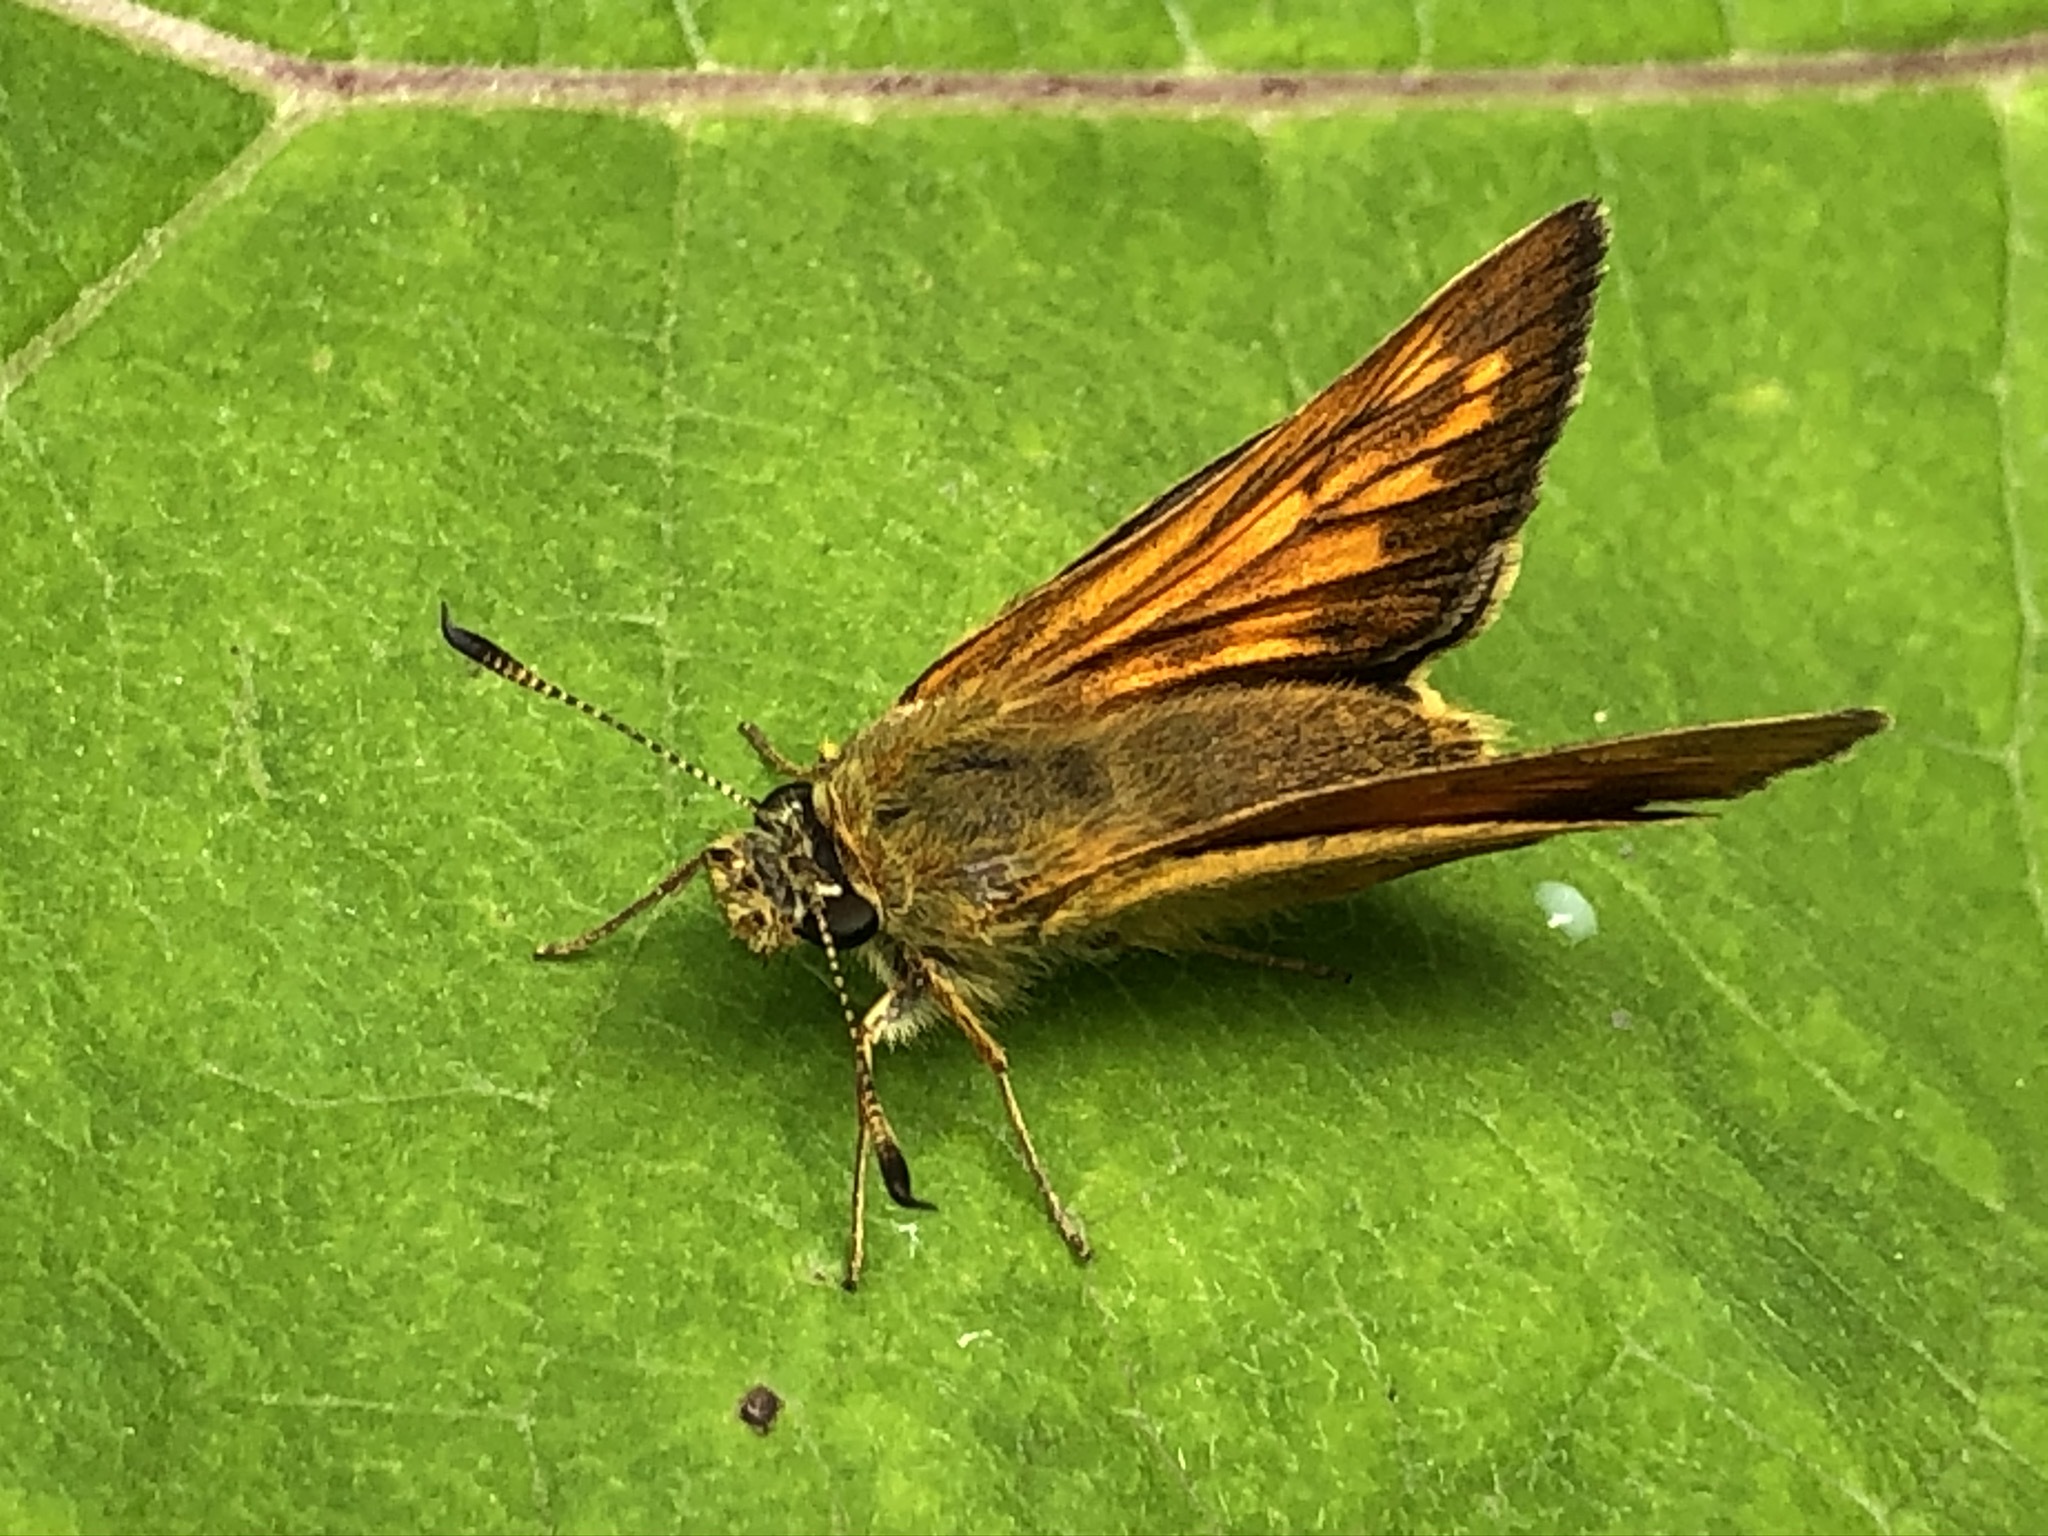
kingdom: Animalia
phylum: Arthropoda
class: Insecta
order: Lepidoptera
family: Hesperiidae
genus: Ochlodes
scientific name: Ochlodes venata
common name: Large skipper
